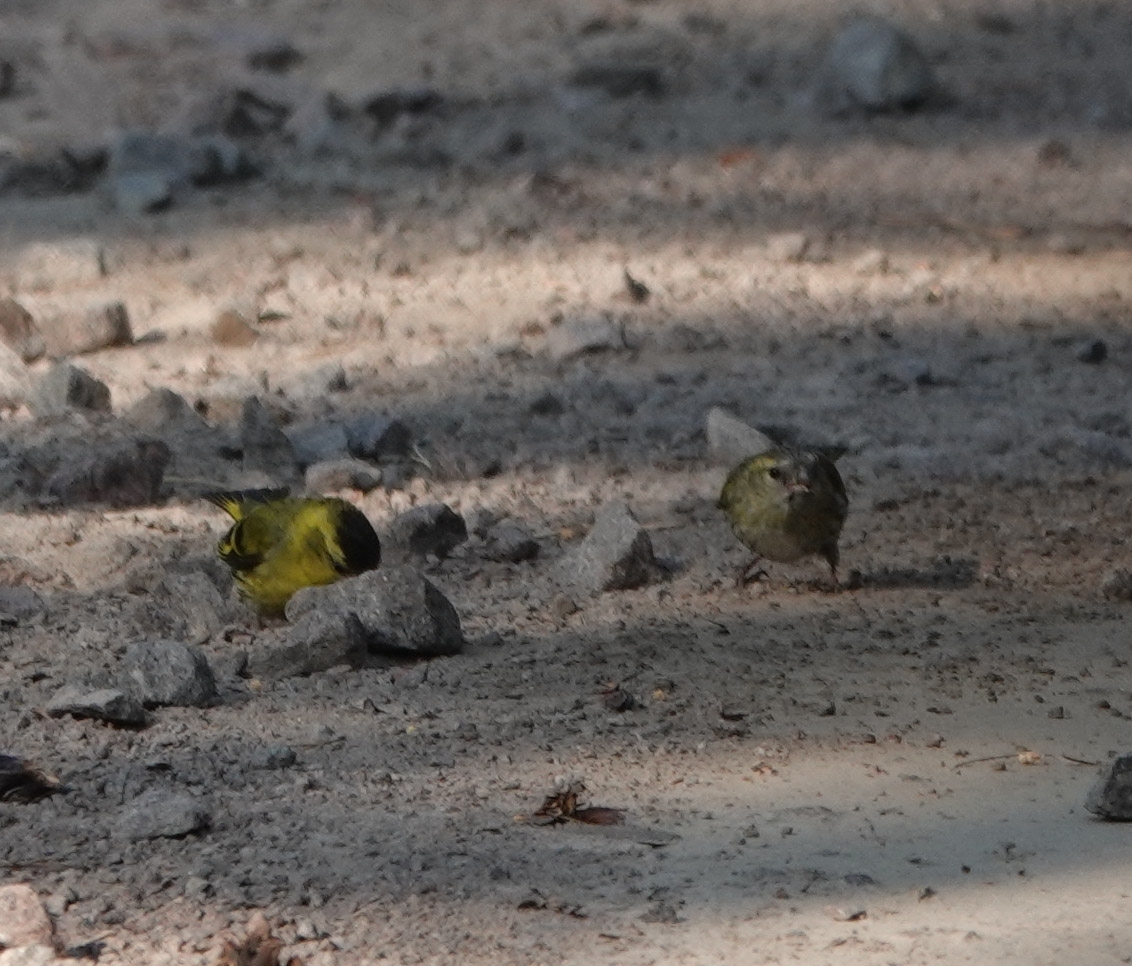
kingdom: Animalia
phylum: Chordata
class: Aves
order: Passeriformes
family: Fringillidae
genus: Spinus
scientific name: Spinus spinus
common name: Eurasian siskin
